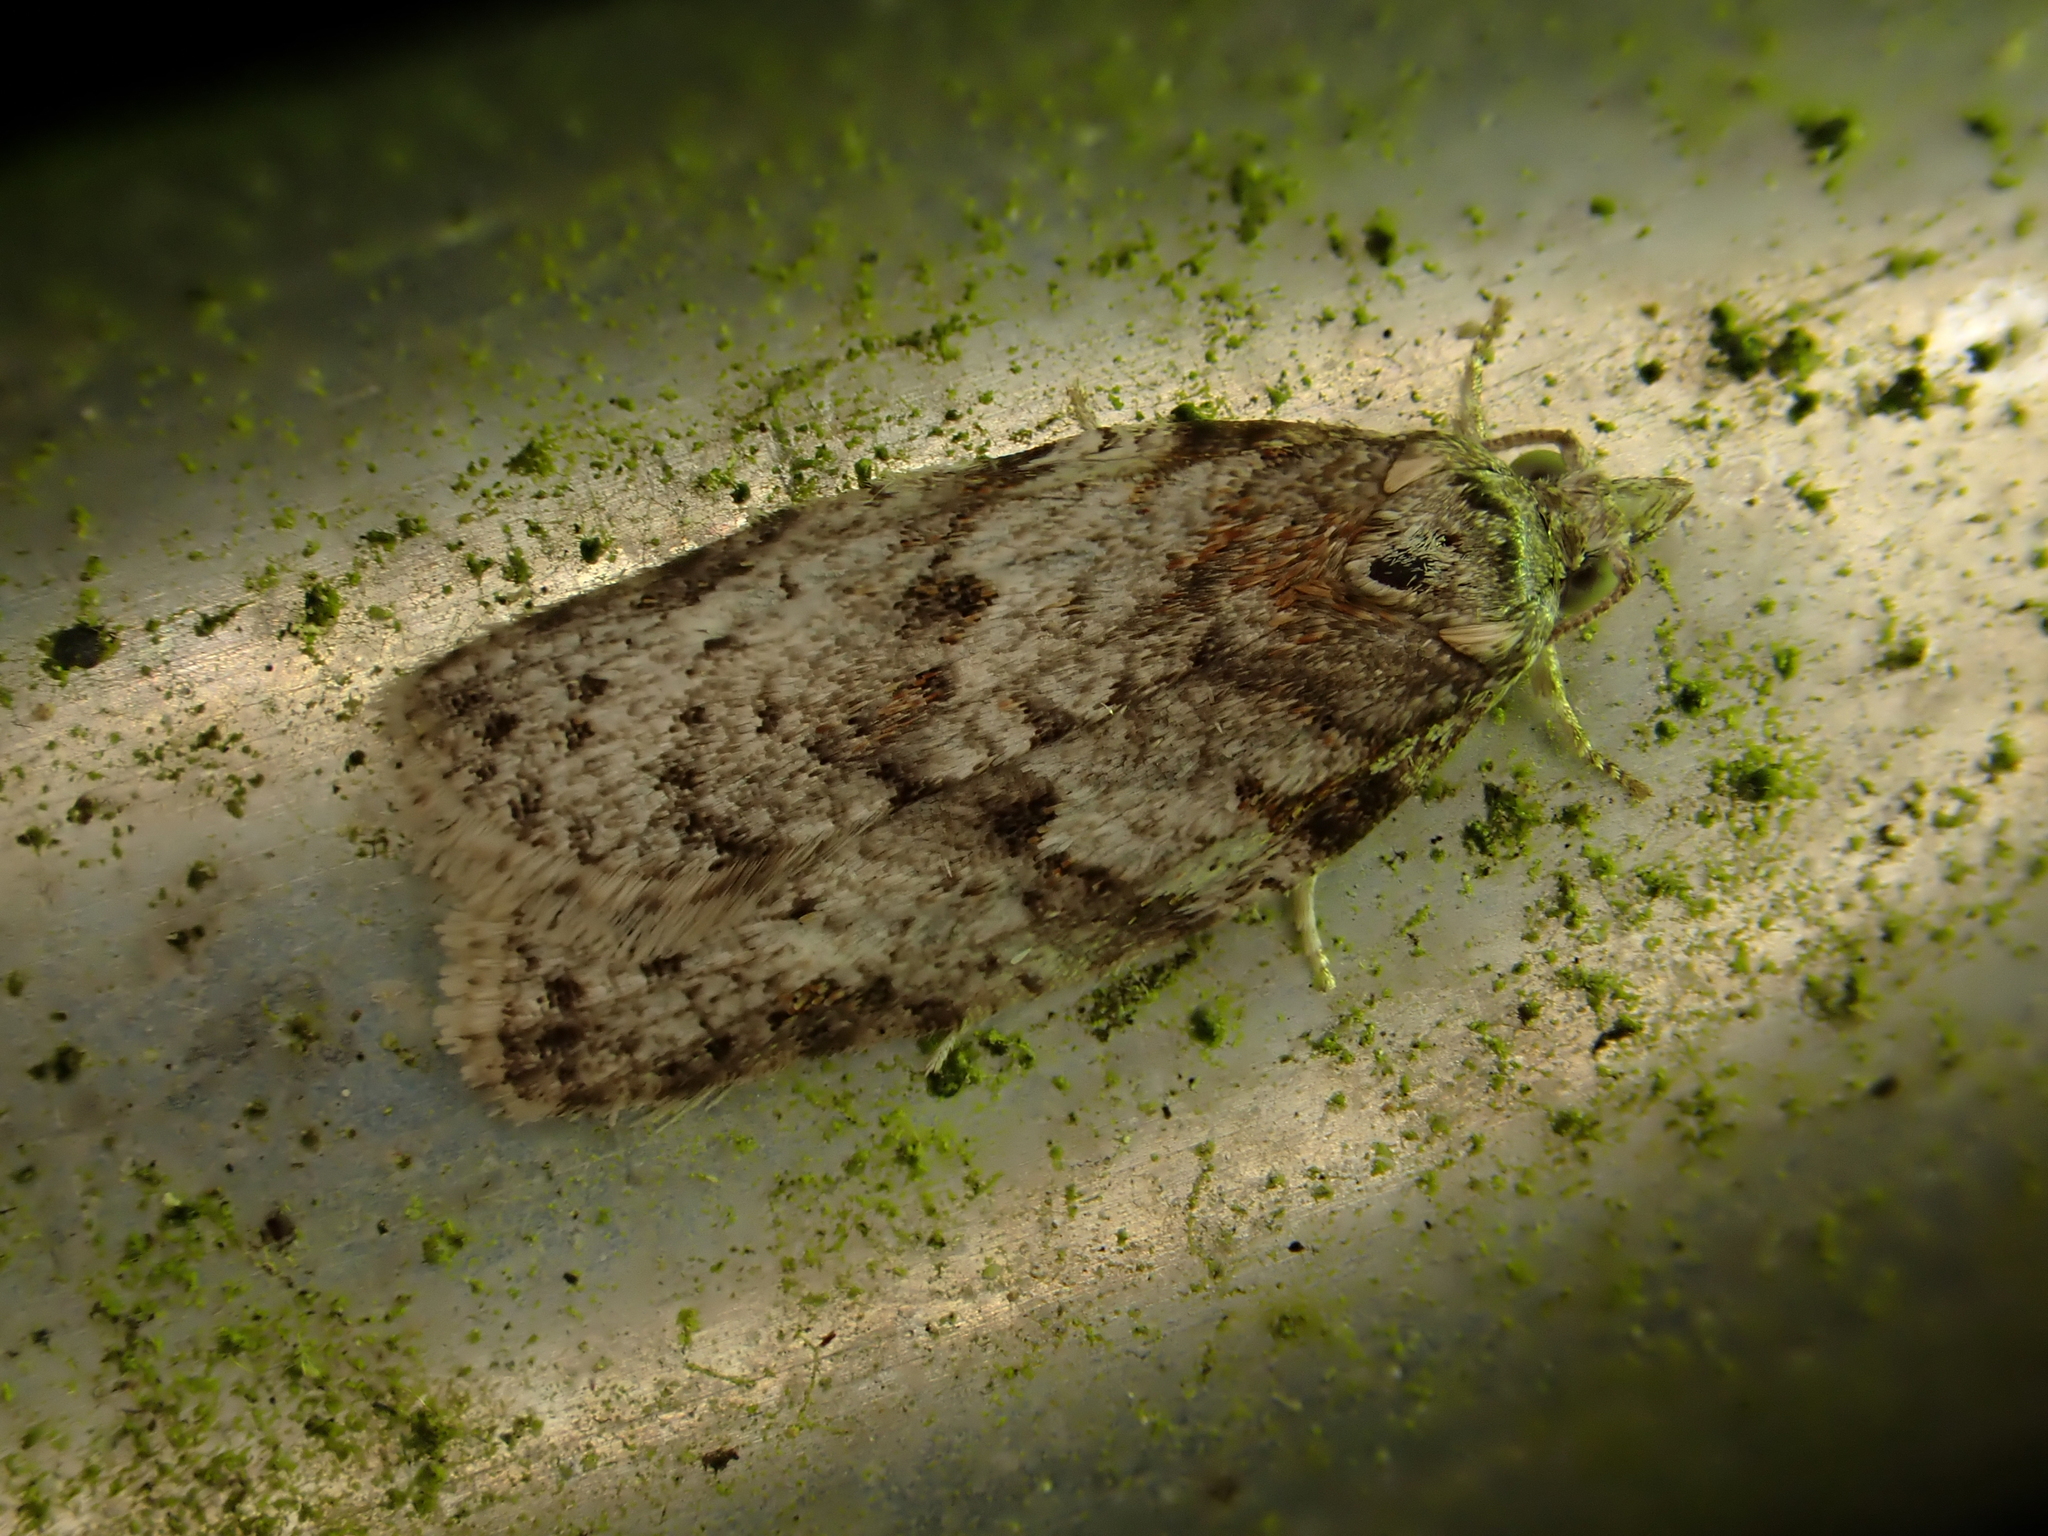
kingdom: Animalia
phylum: Arthropoda
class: Insecta
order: Lepidoptera
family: Tortricidae
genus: Isotenes
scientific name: Isotenes miserana
